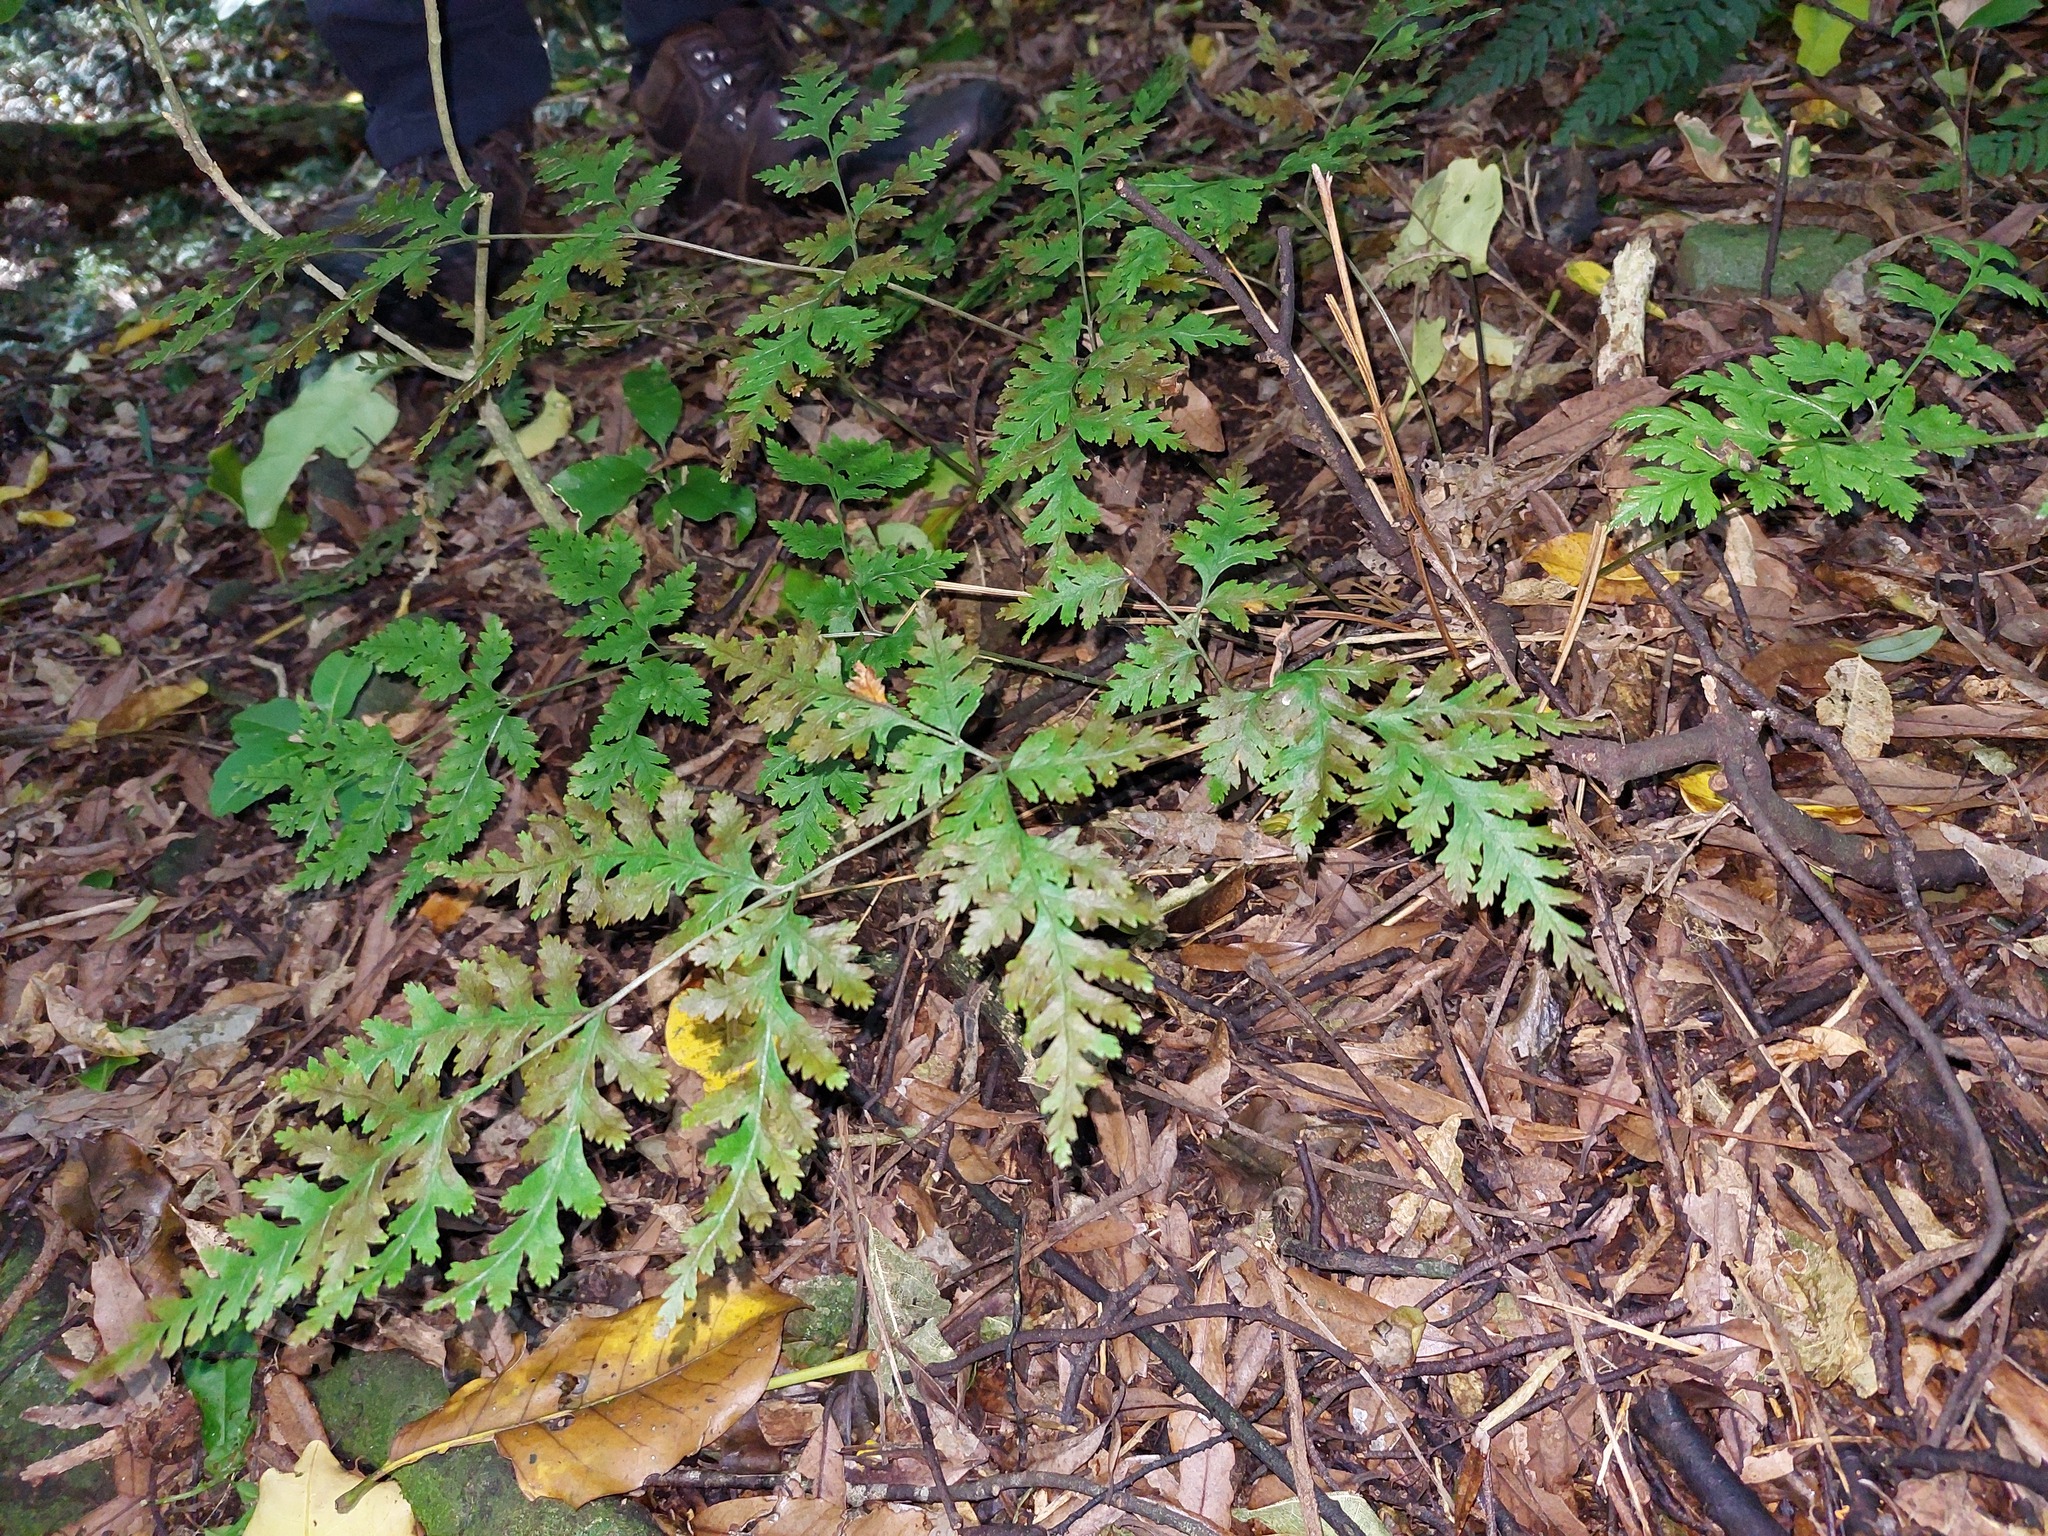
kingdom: Plantae
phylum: Tracheophyta
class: Polypodiopsida
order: Polypodiales
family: Pteridaceae
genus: Pteris
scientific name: Pteris macilenta
